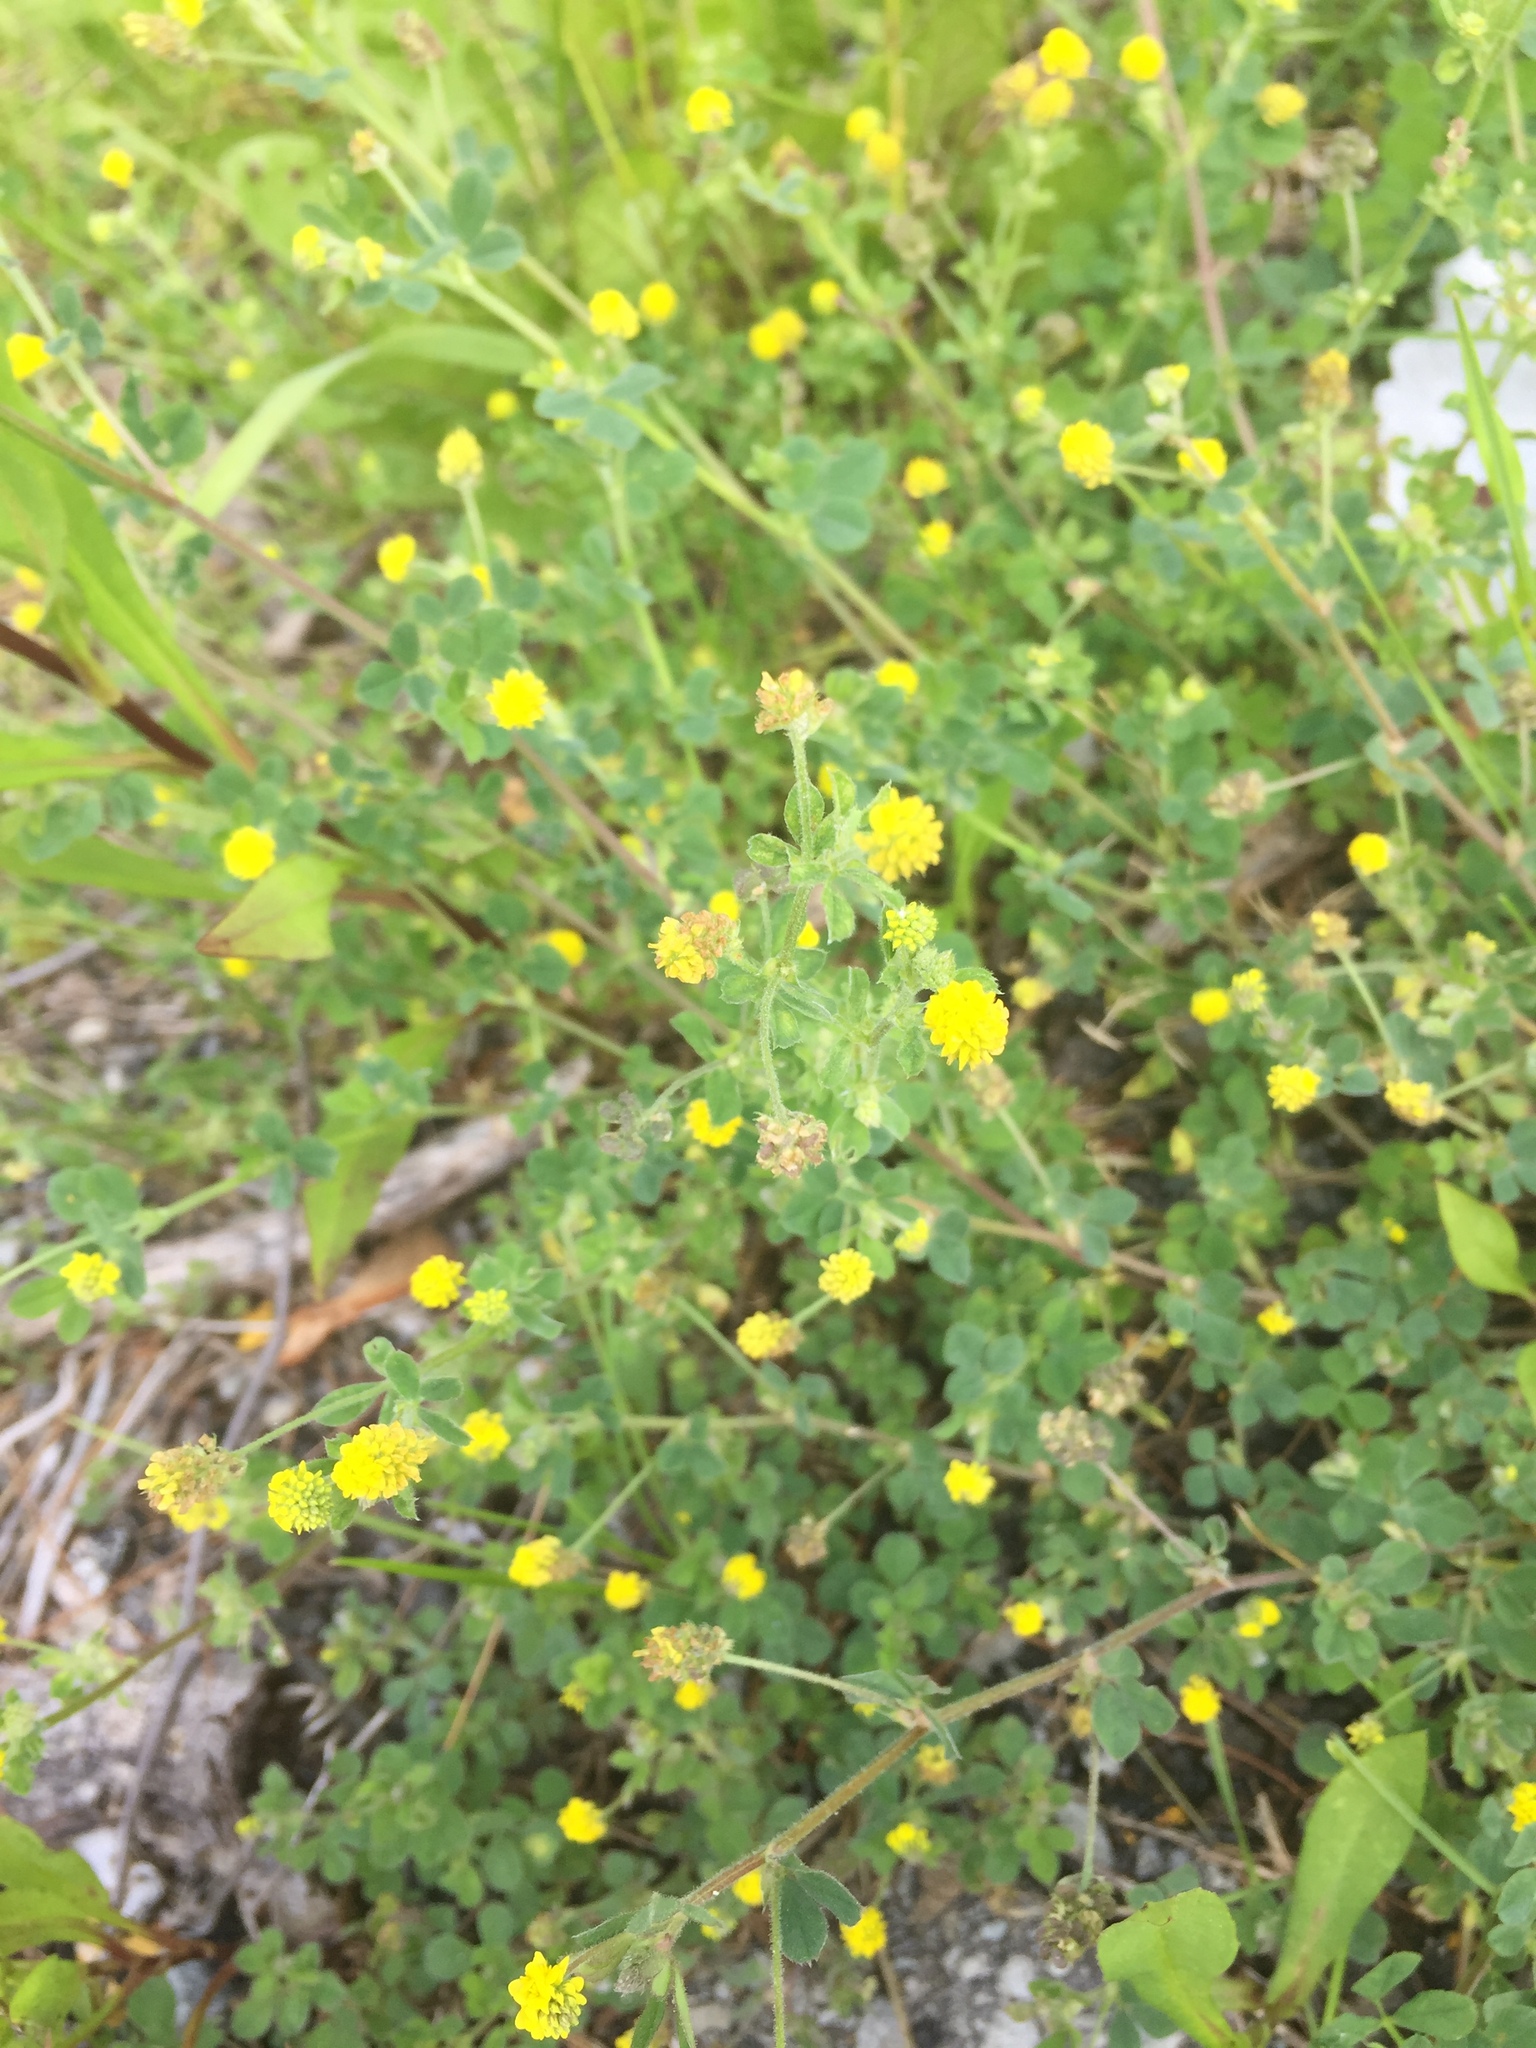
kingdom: Plantae
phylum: Tracheophyta
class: Magnoliopsida
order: Fabales
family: Fabaceae
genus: Medicago
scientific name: Medicago lupulina
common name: Black medick
